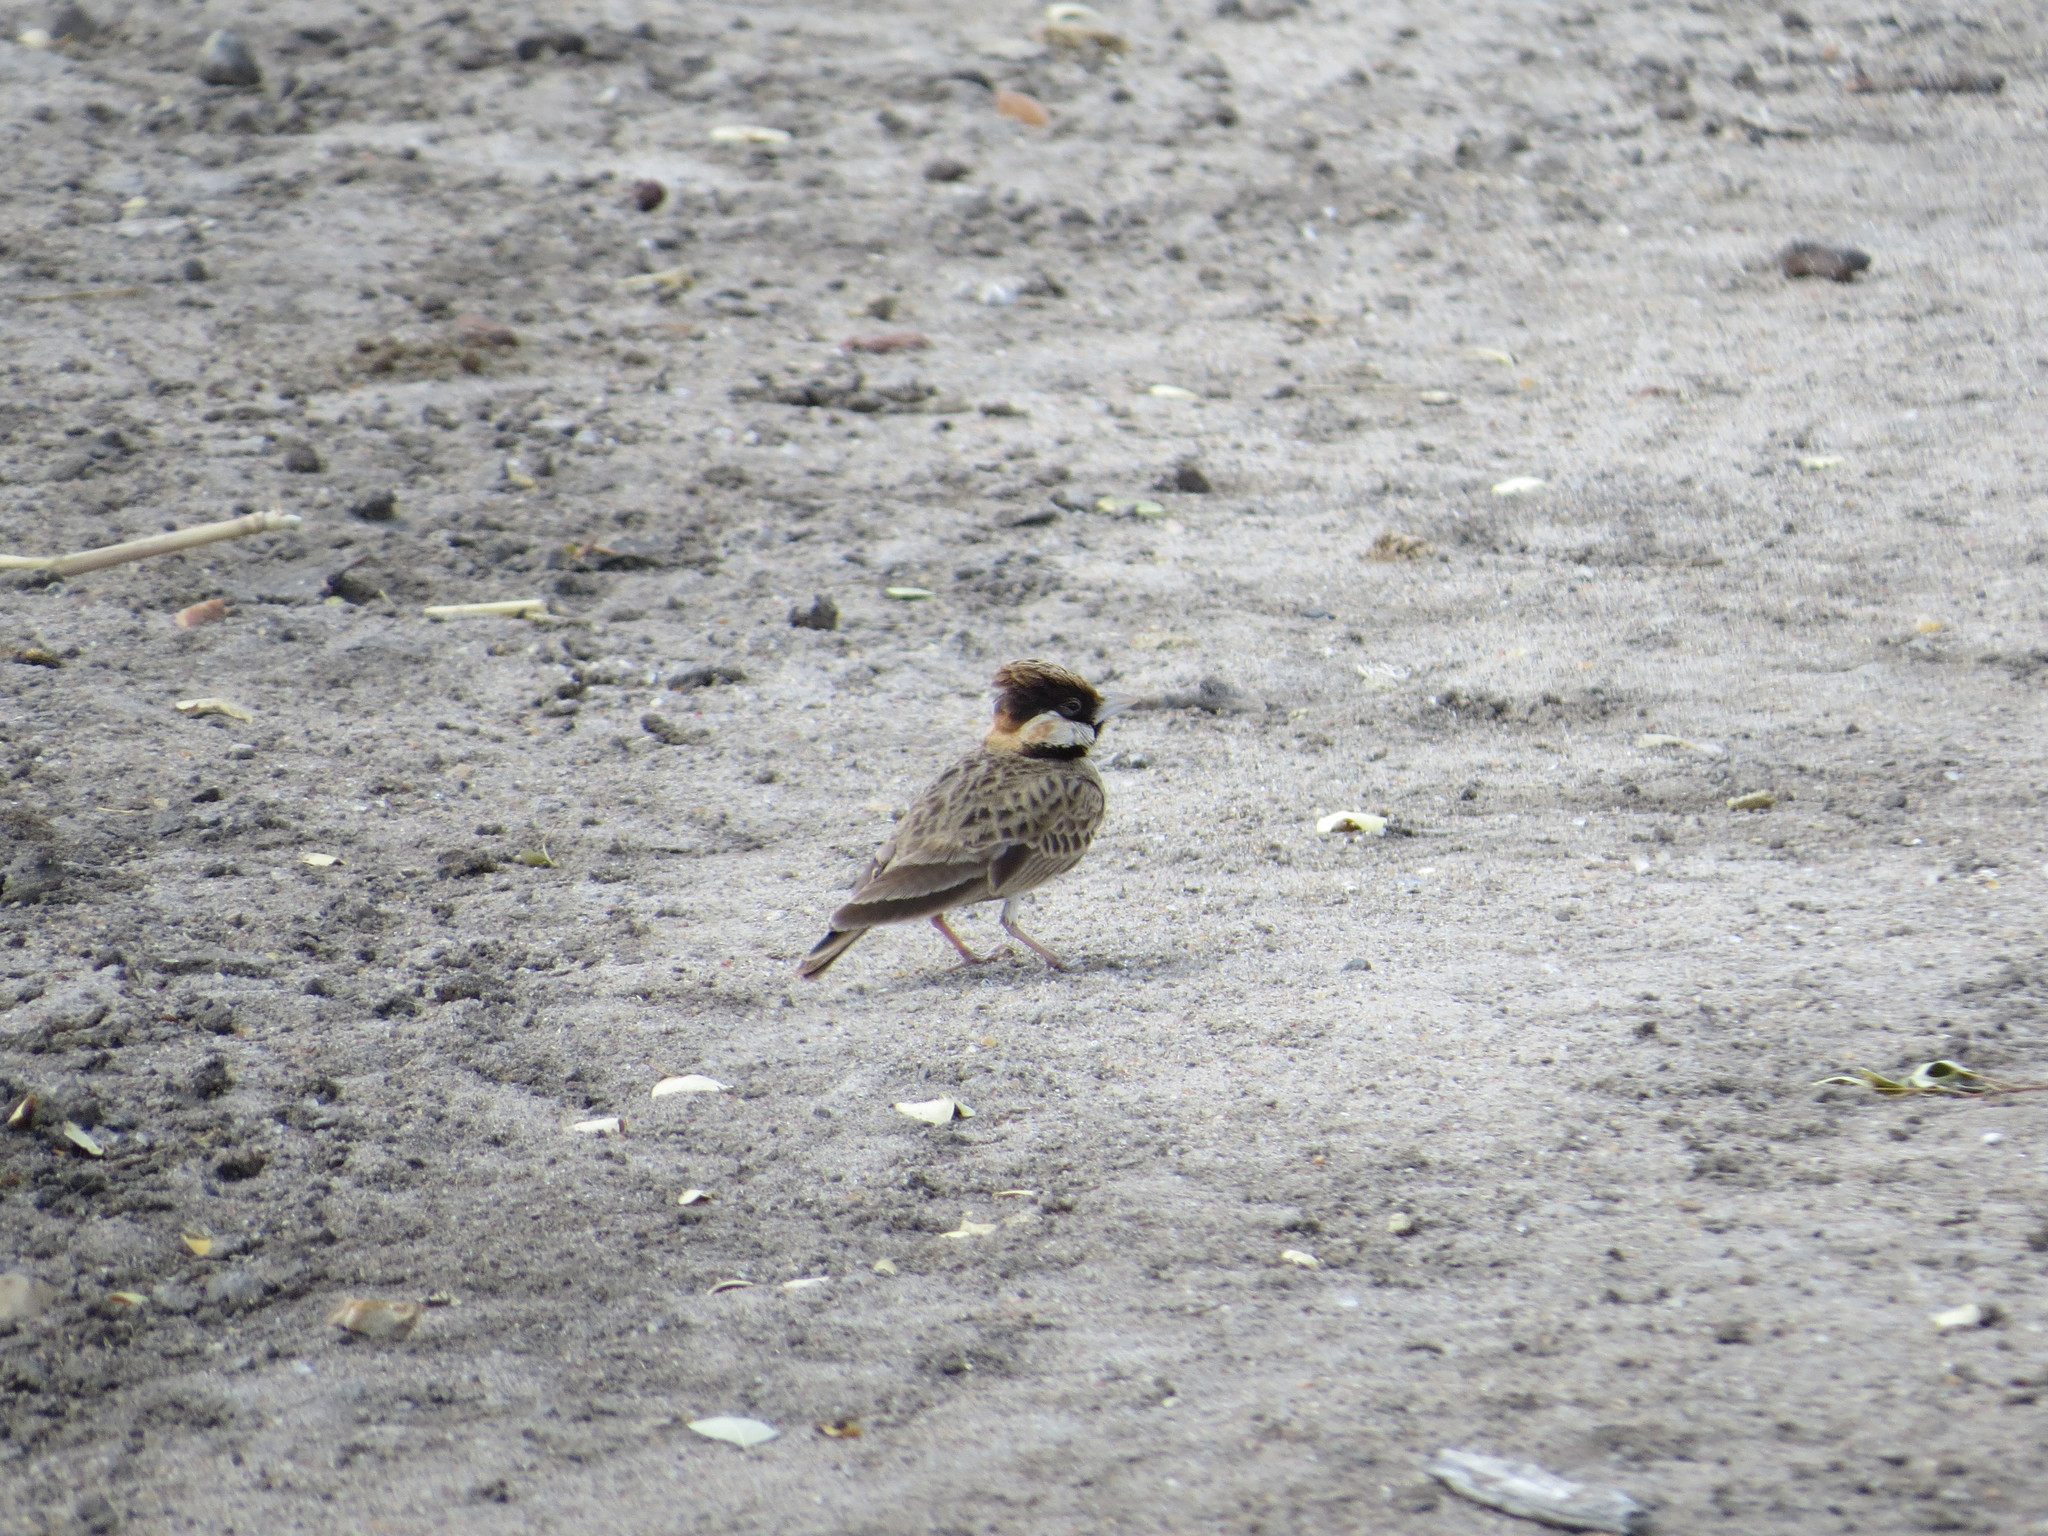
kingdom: Animalia
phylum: Chordata
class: Aves
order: Passeriformes
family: Alaudidae
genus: Eremopterix
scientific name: Eremopterix leucopareia
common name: Fischer's sparrow-lark
